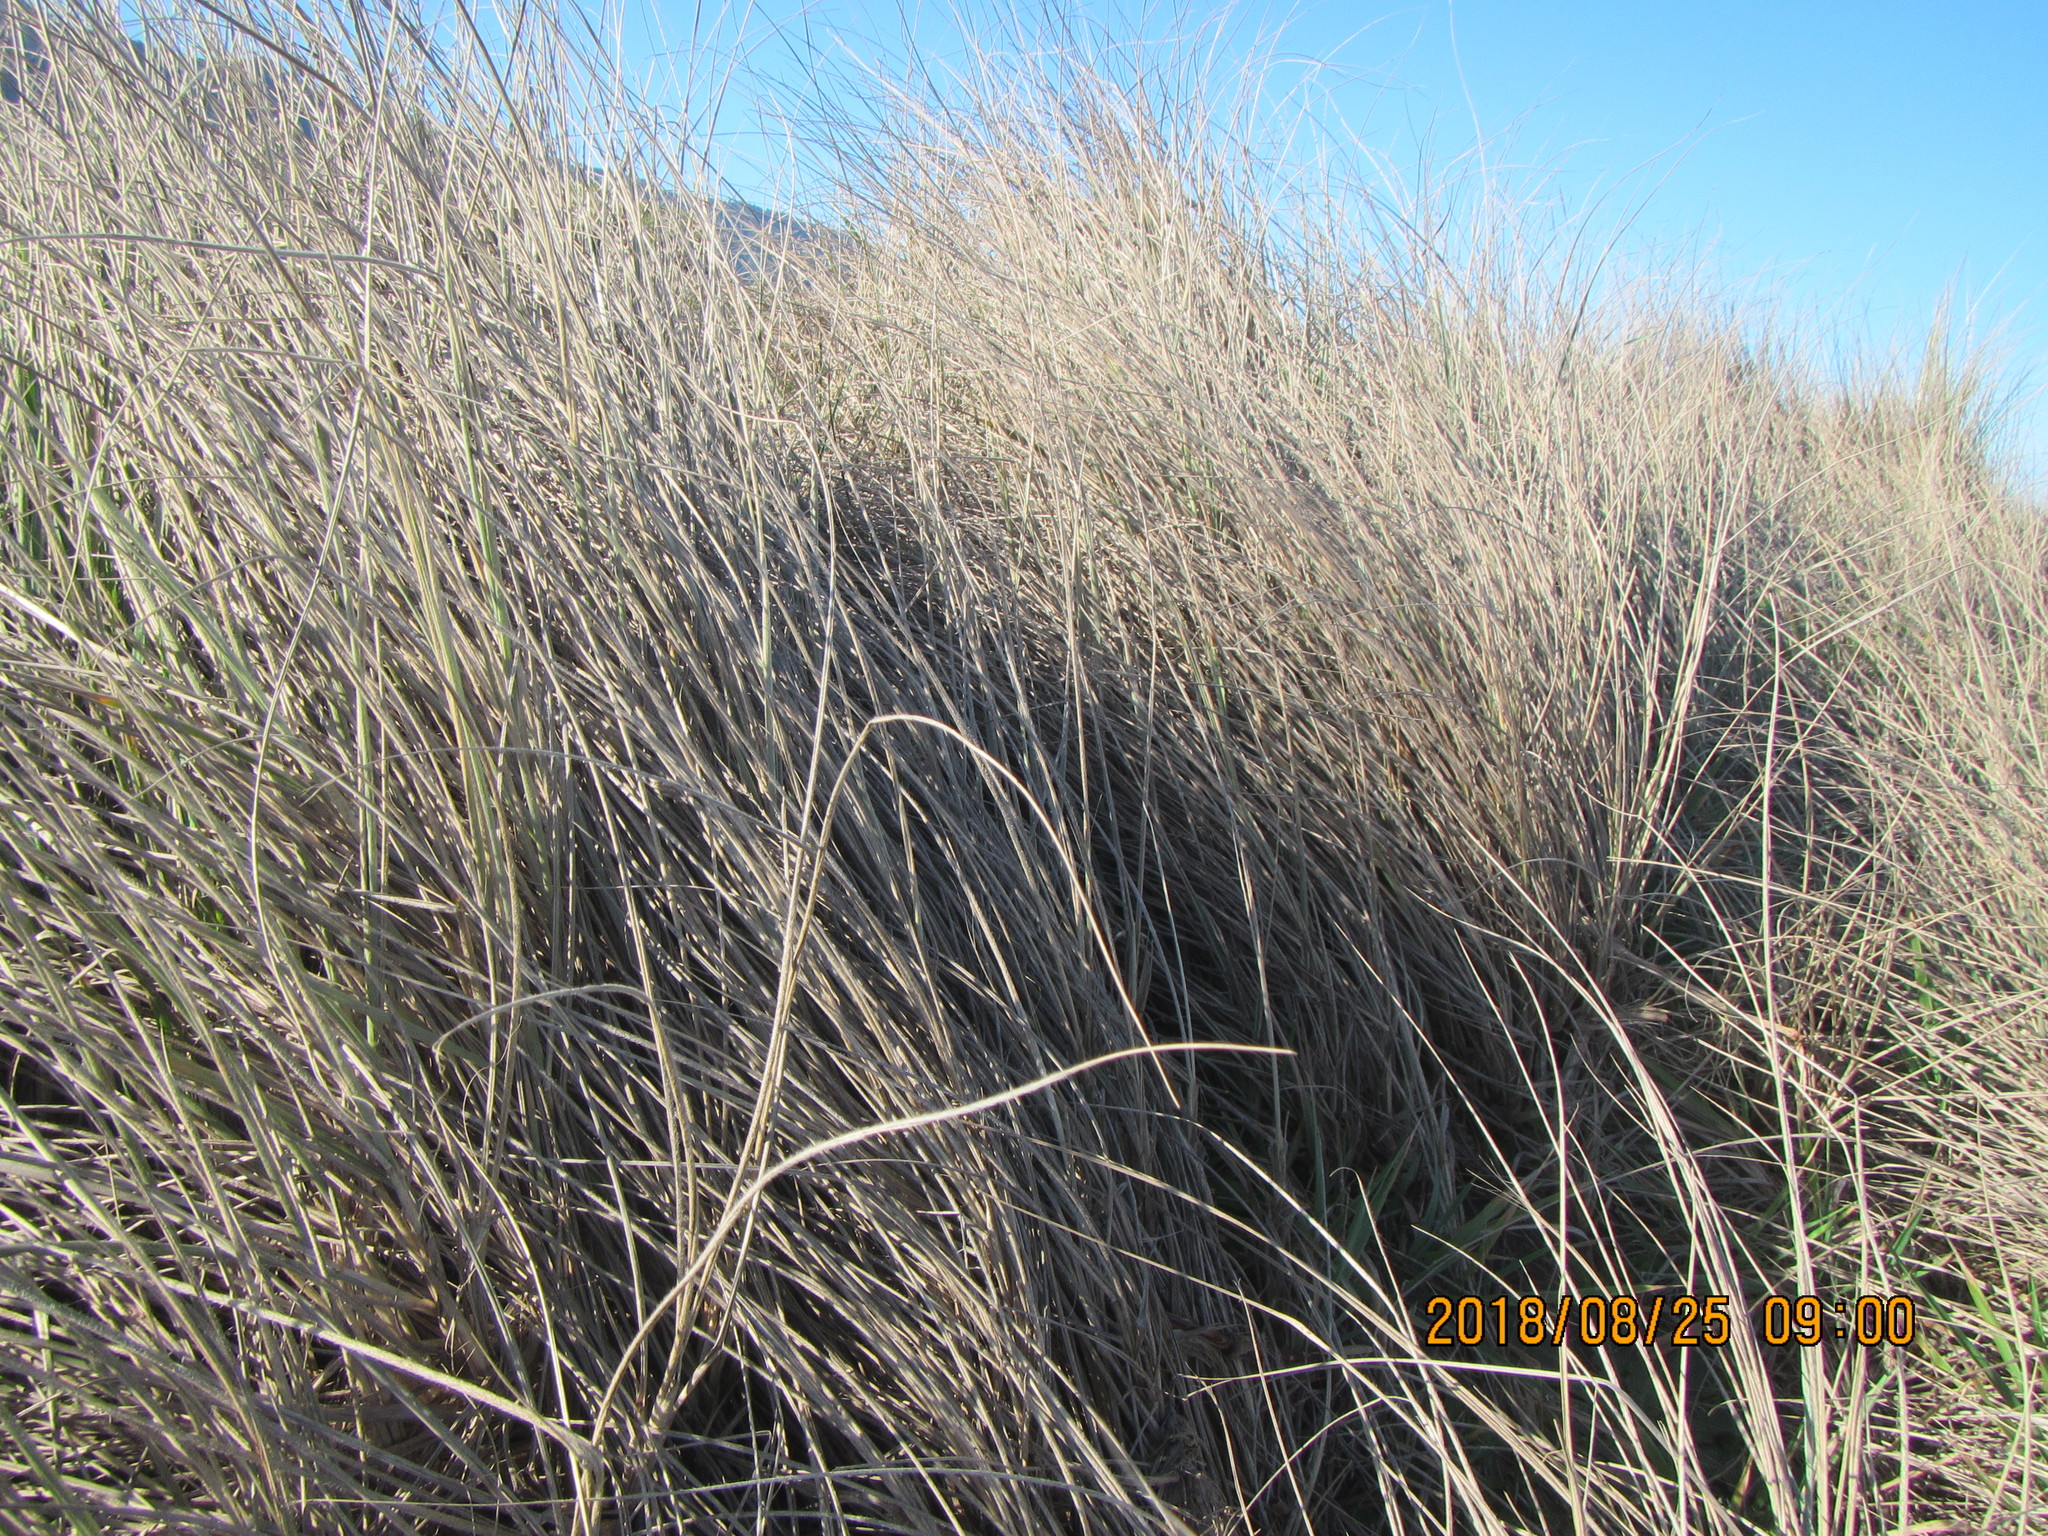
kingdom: Plantae
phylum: Tracheophyta
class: Liliopsida
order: Poales
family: Poaceae
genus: Spinifex
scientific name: Spinifex sericeus
